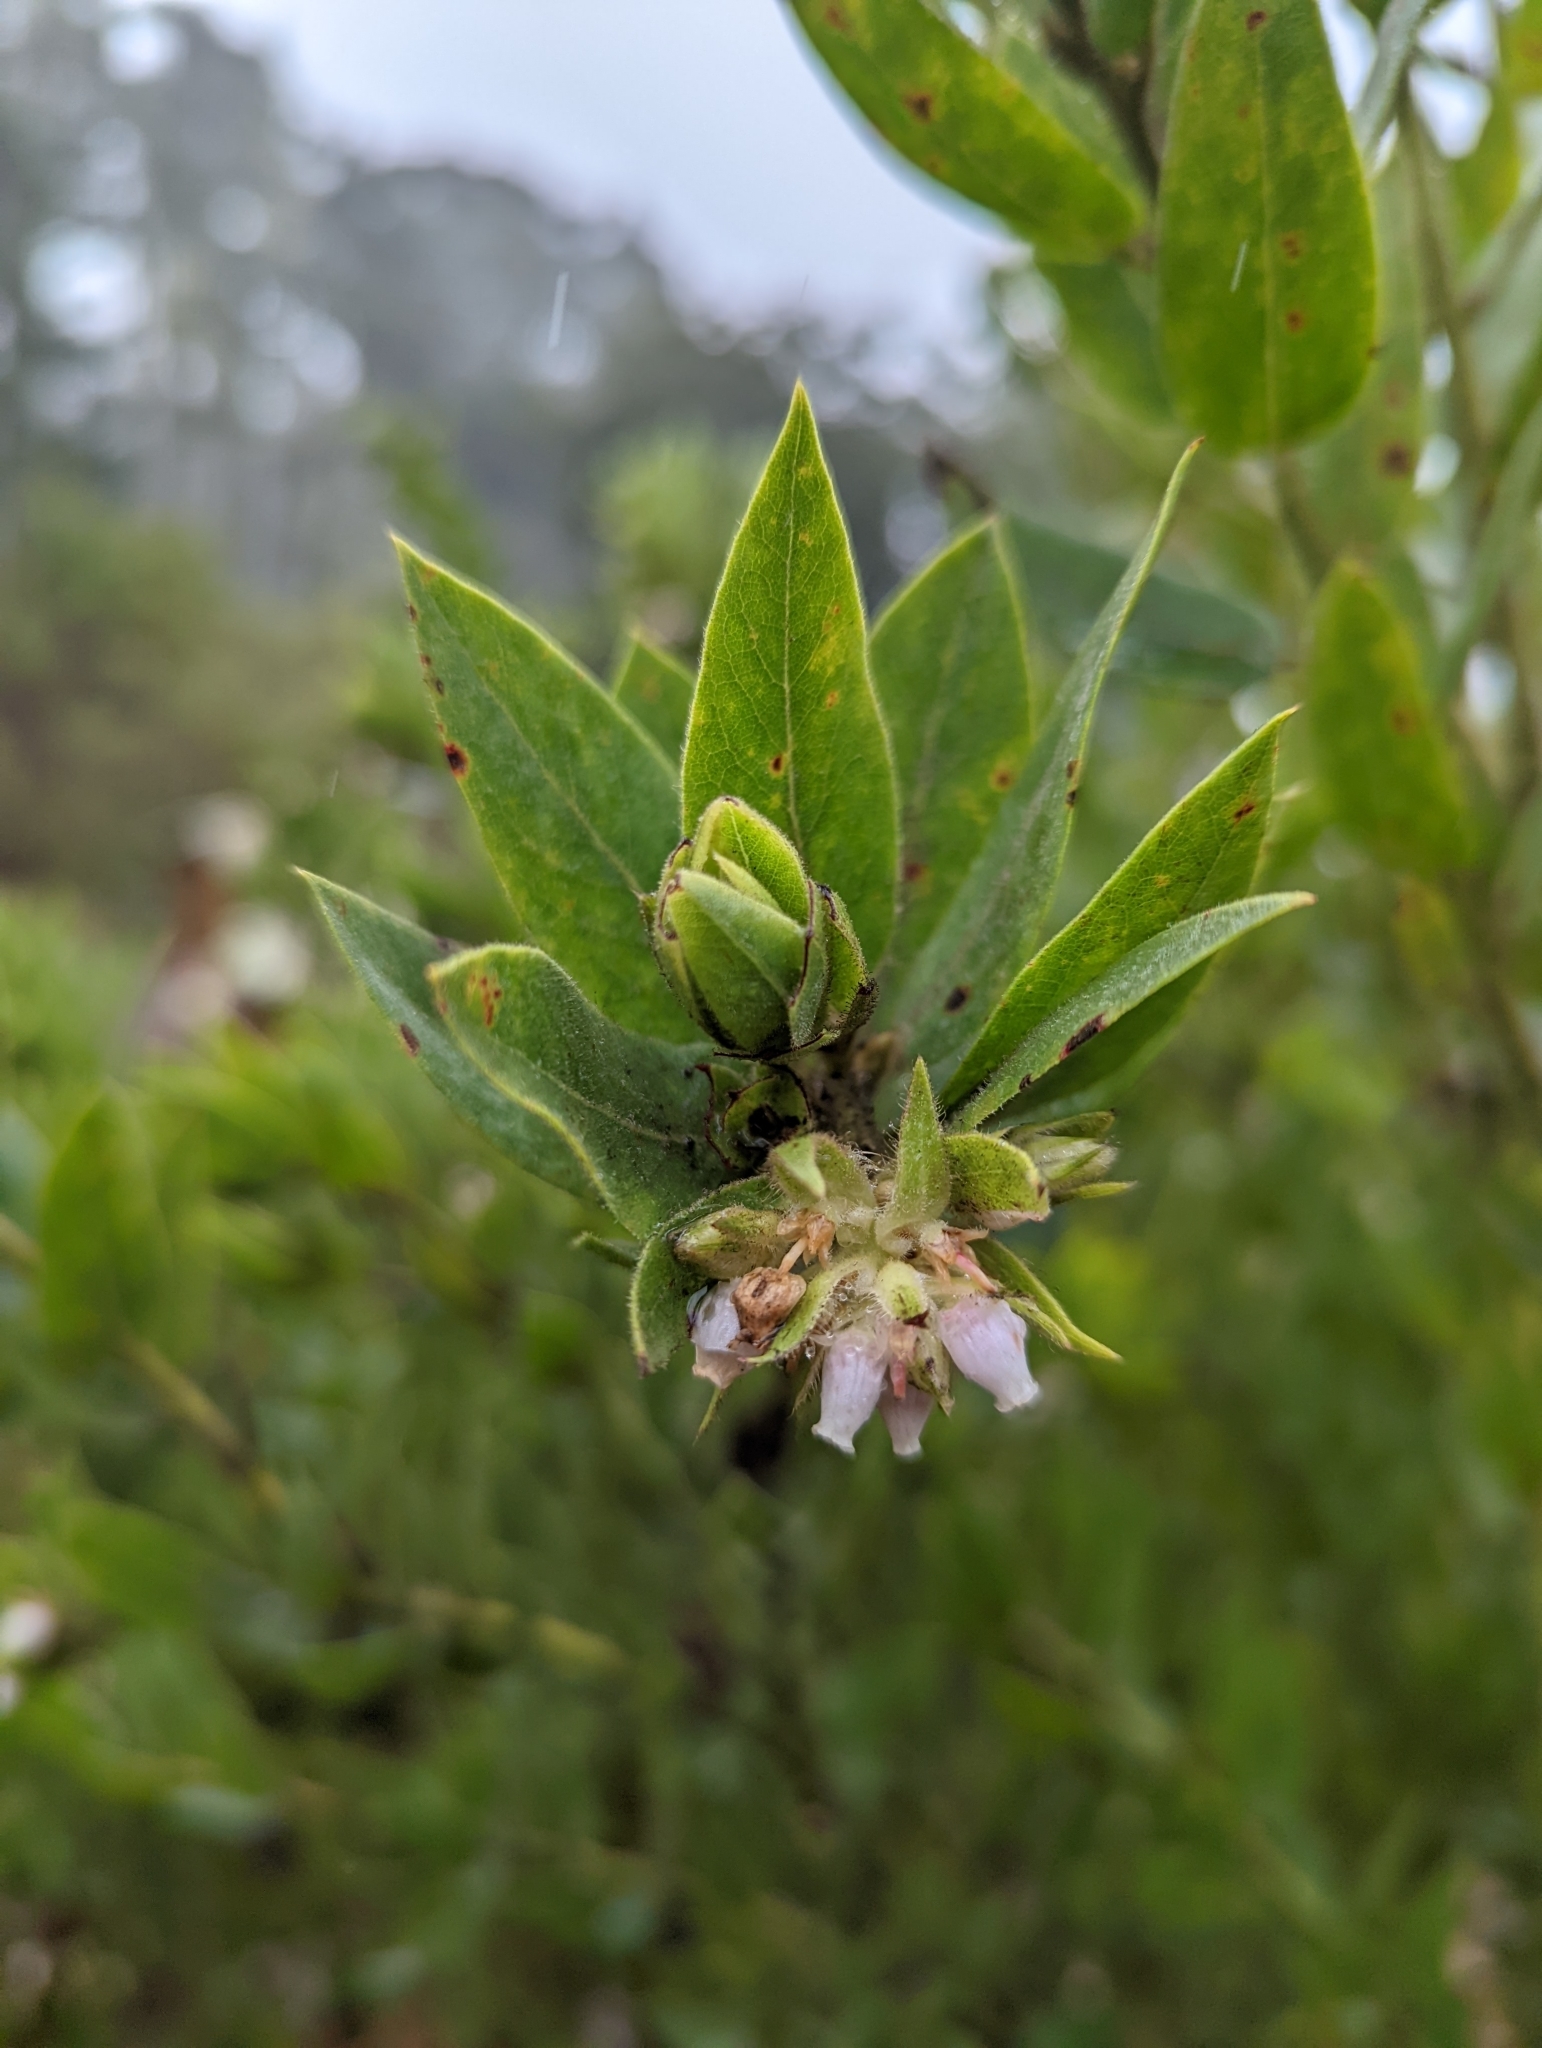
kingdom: Plantae
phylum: Tracheophyta
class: Magnoliopsida
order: Ericales
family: Ericaceae
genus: Arctostaphylos
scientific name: Arctostaphylos virgata
